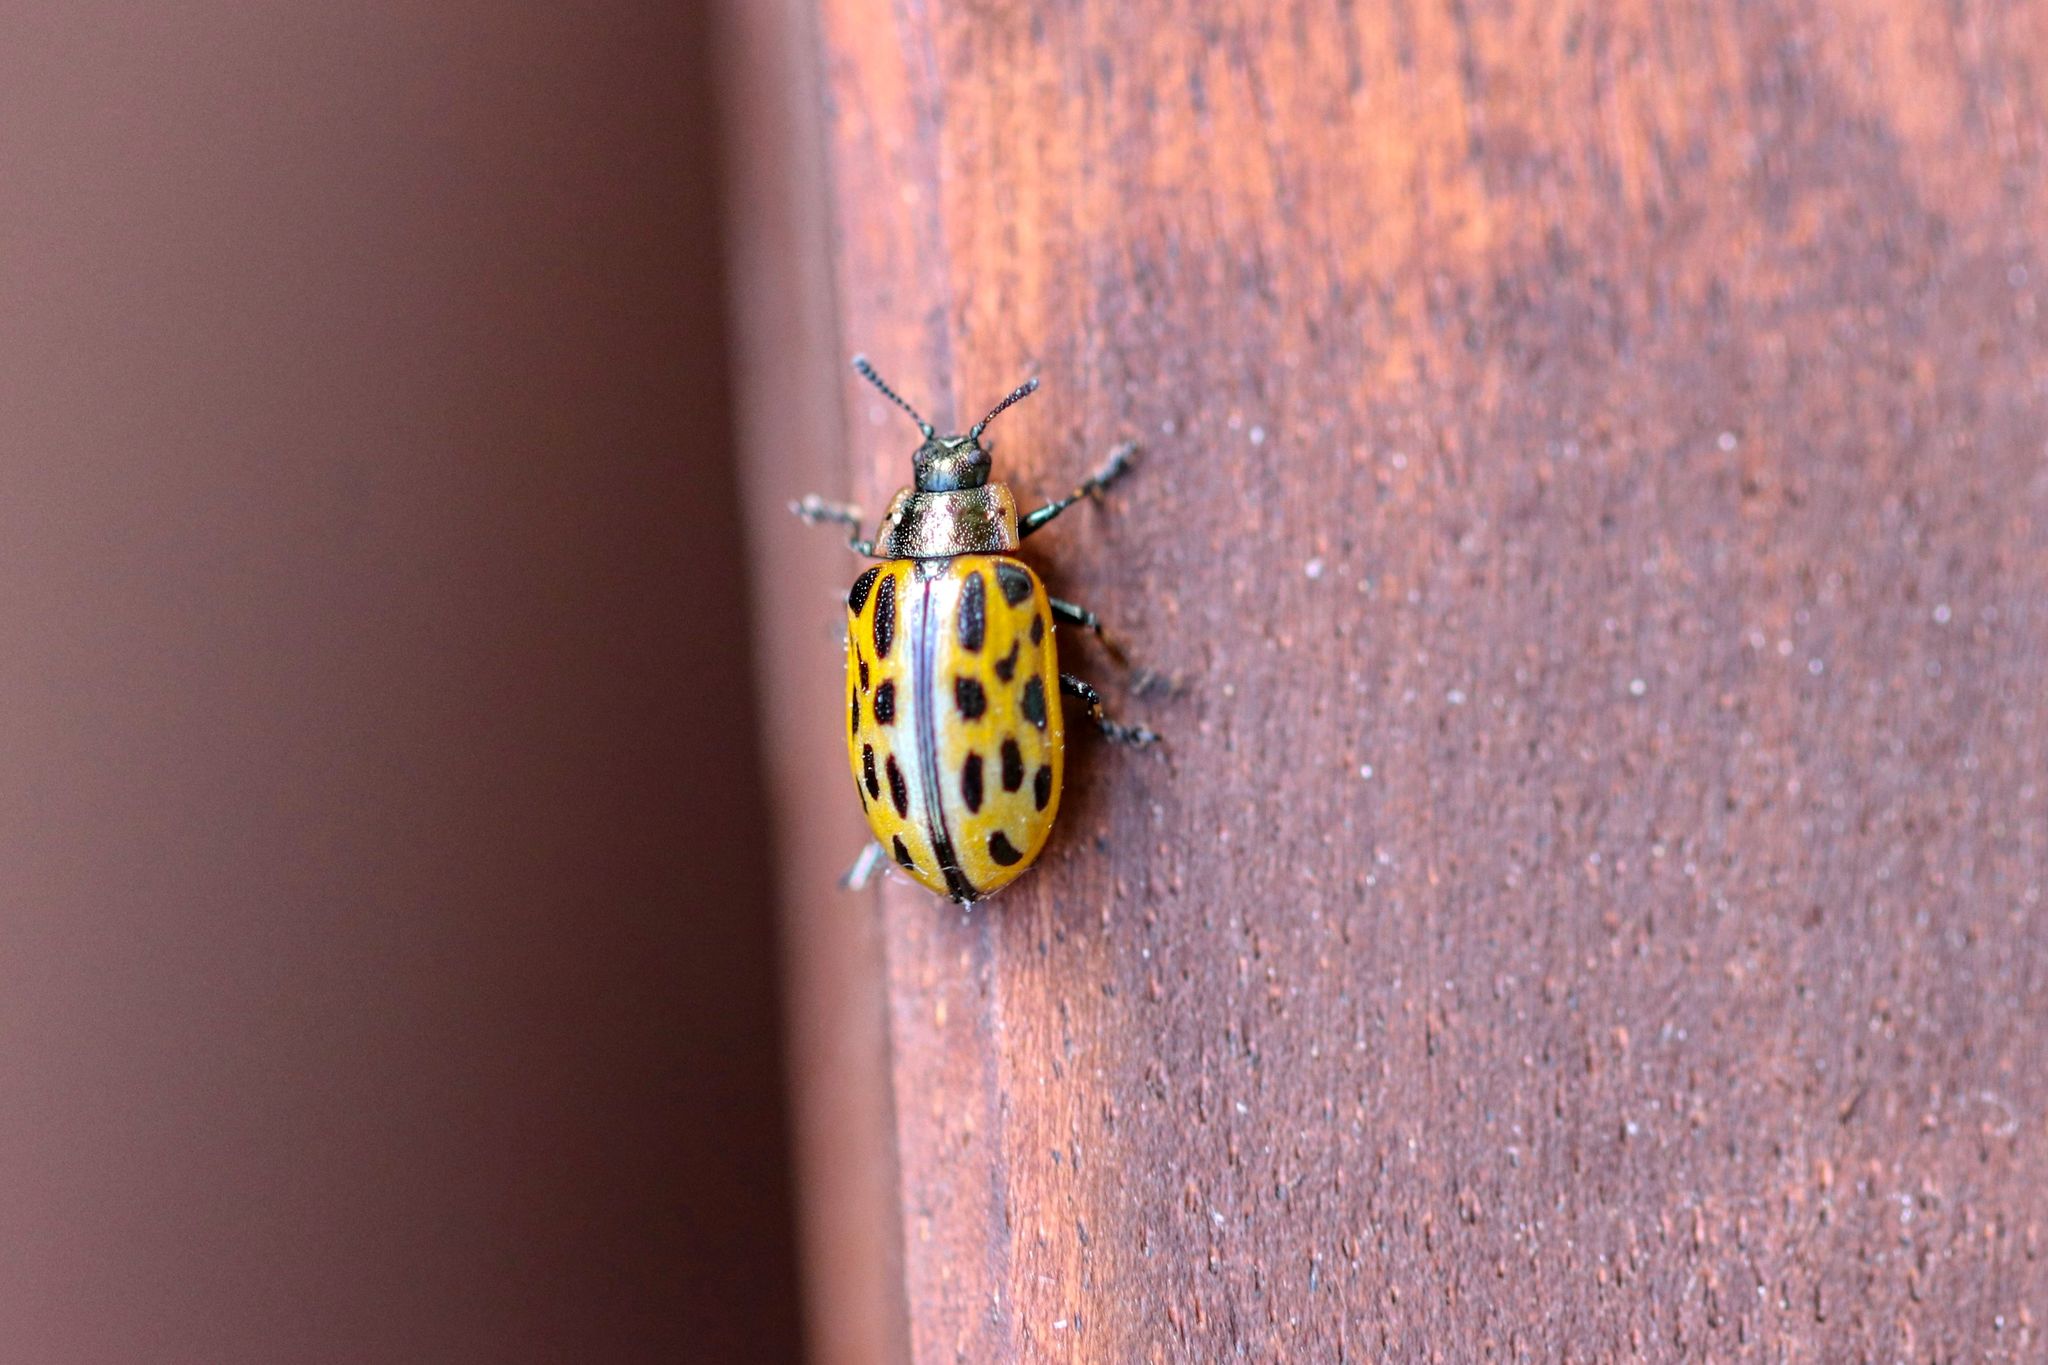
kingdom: Animalia
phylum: Arthropoda
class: Insecta
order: Coleoptera
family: Chrysomelidae
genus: Chrysomela
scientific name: Chrysomela vigintipunctata
